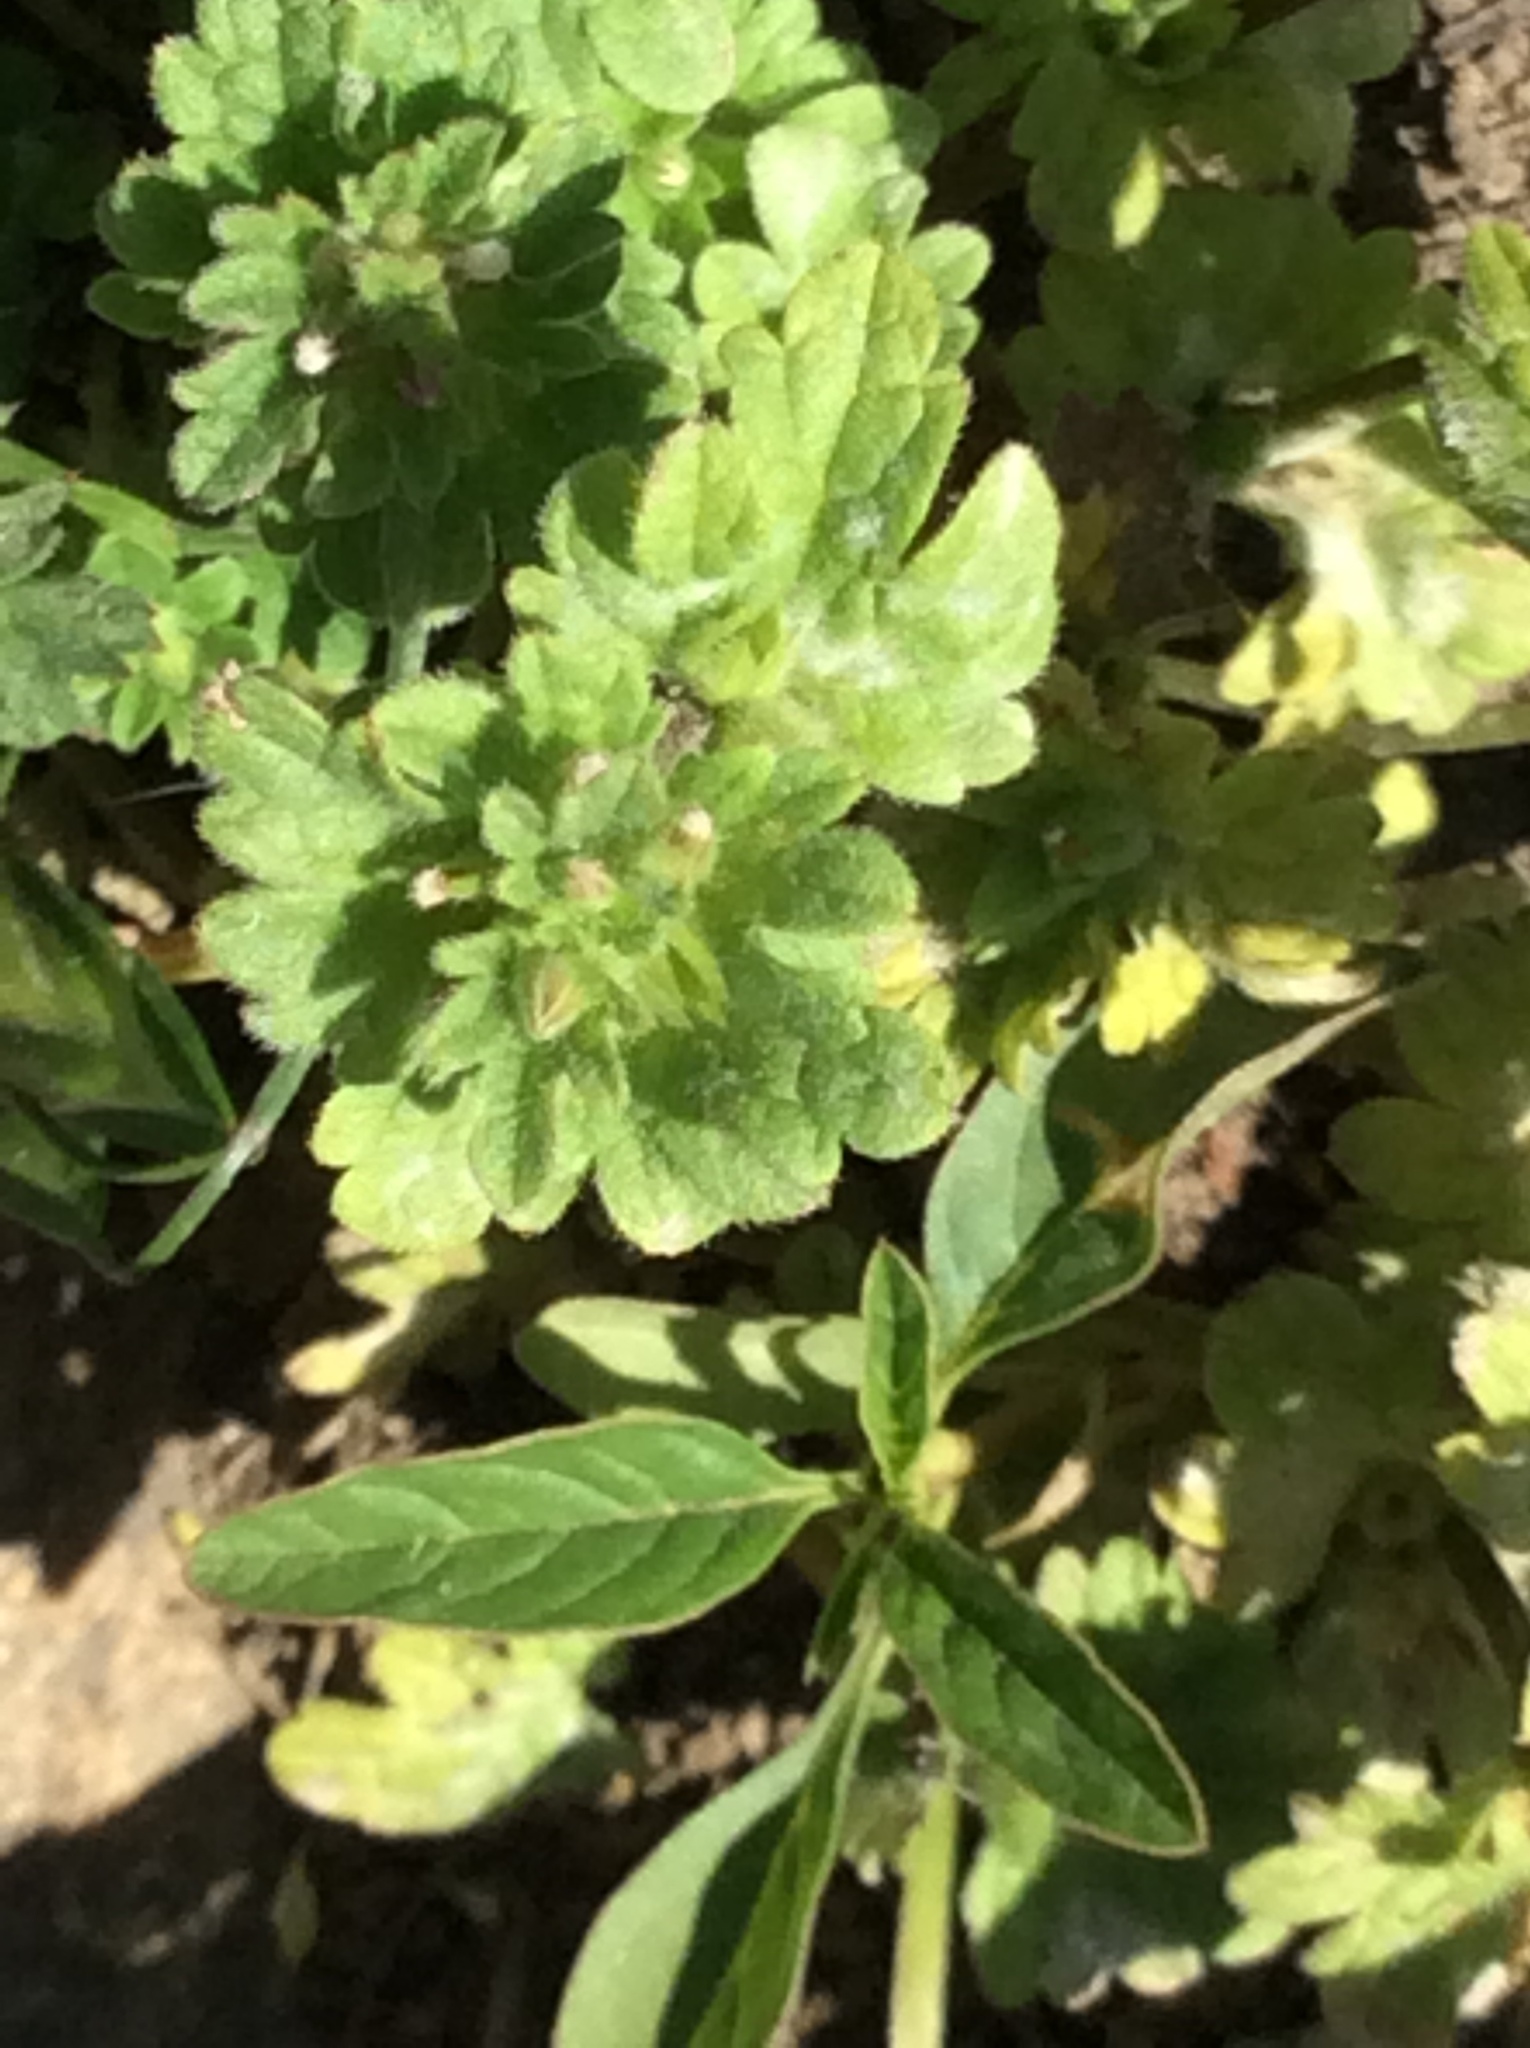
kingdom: Plantae
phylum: Tracheophyta
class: Magnoliopsida
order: Lamiales
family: Lamiaceae
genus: Lamium
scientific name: Lamium amplexicaule
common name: Henbit dead-nettle
